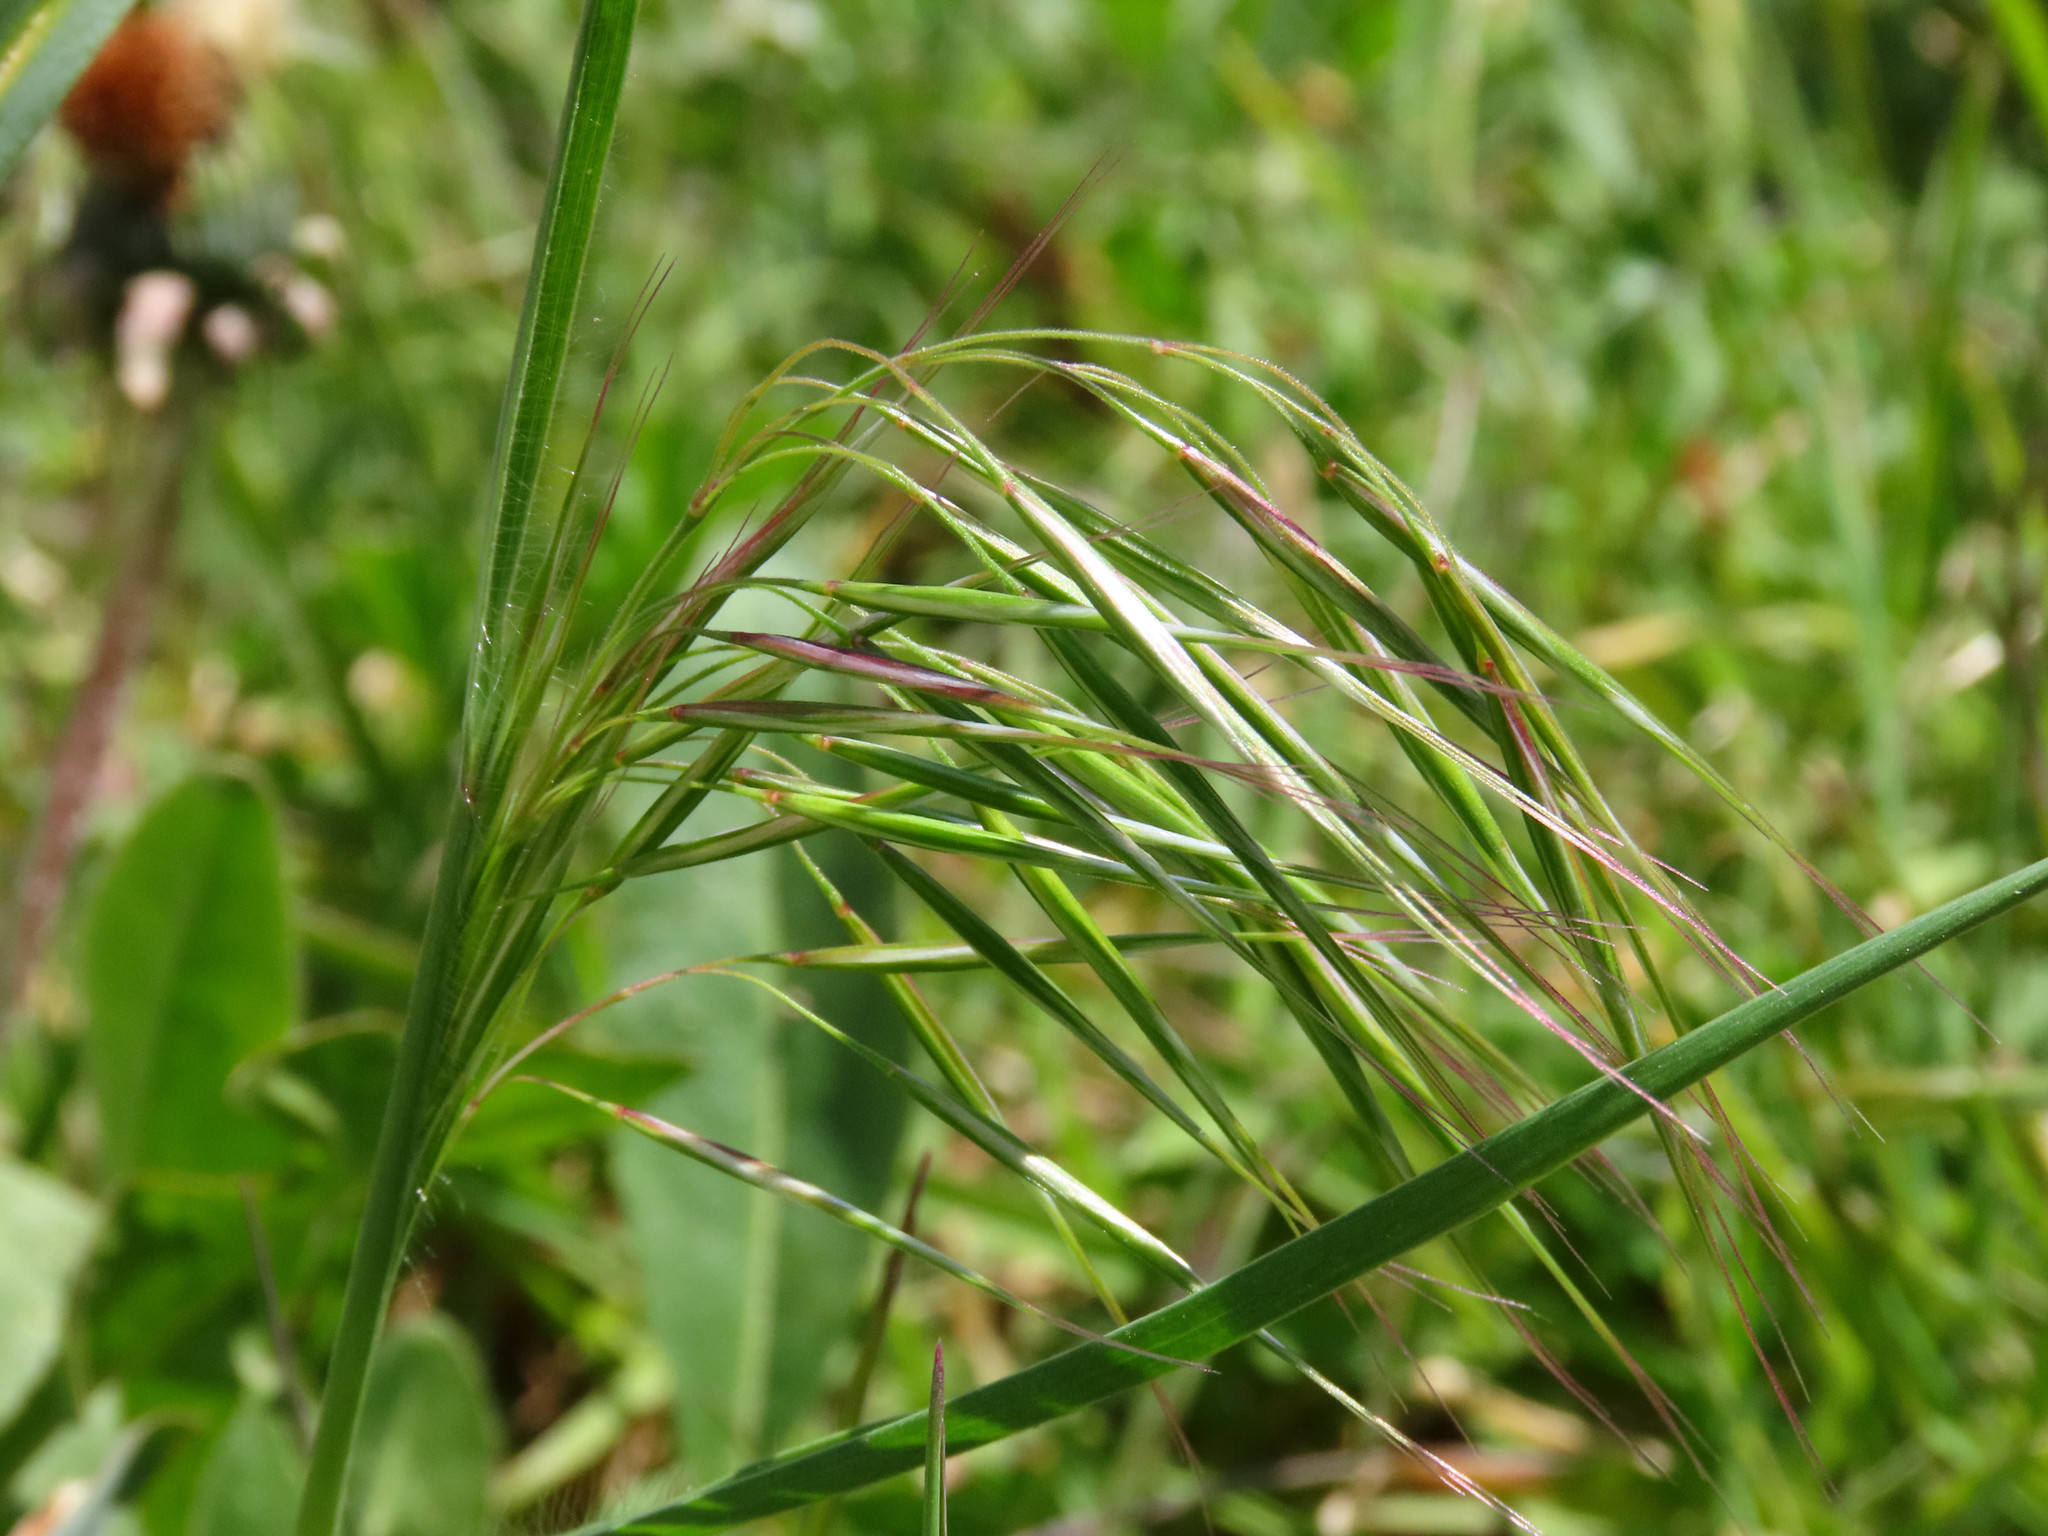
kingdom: Plantae
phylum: Tracheophyta
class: Liliopsida
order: Poales
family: Poaceae
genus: Bromus
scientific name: Bromus sterilis
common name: Poverty brome
